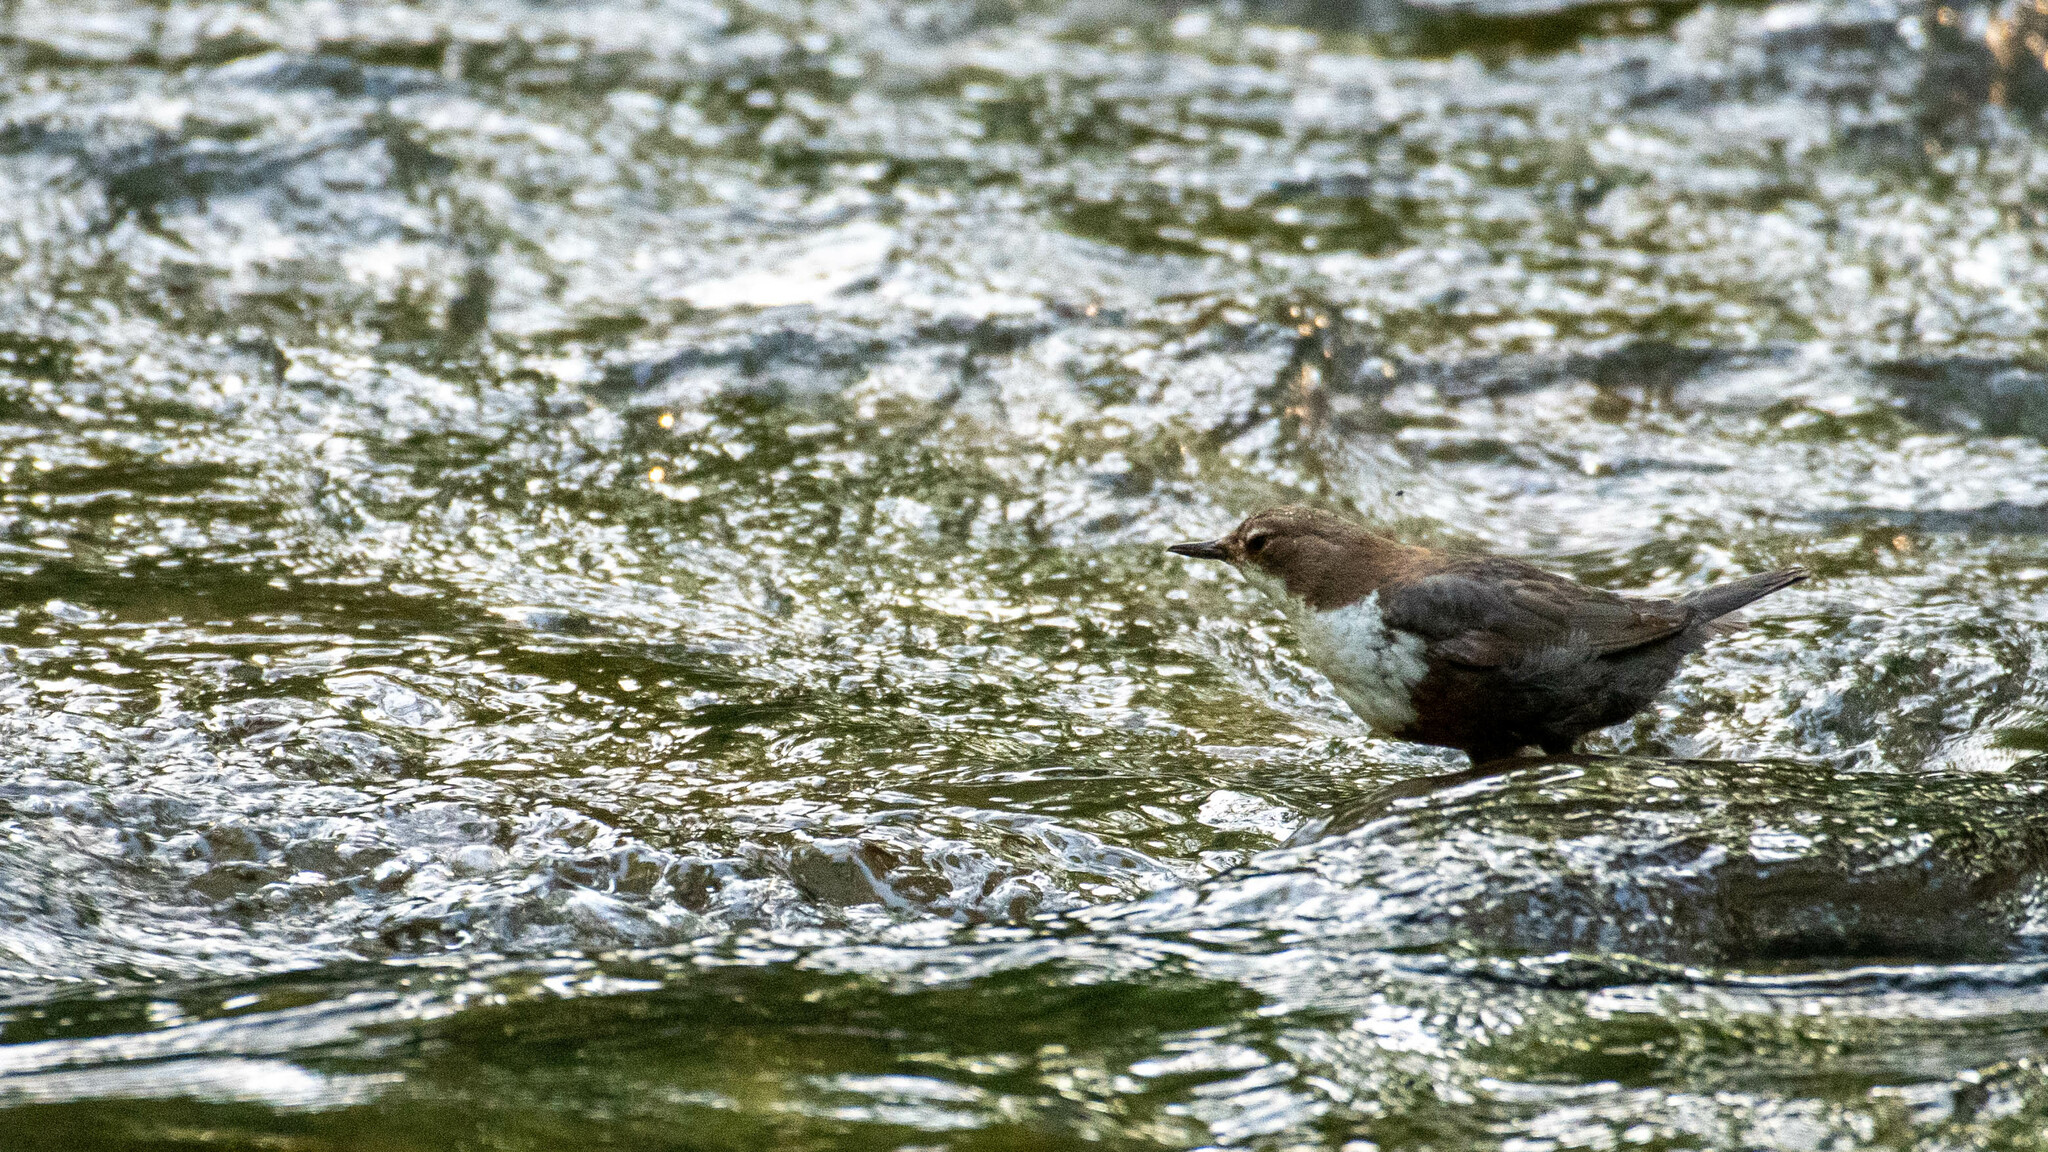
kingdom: Animalia
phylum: Chordata
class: Aves
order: Passeriformes
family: Cinclidae
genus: Cinclus
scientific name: Cinclus cinclus
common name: White-throated dipper
